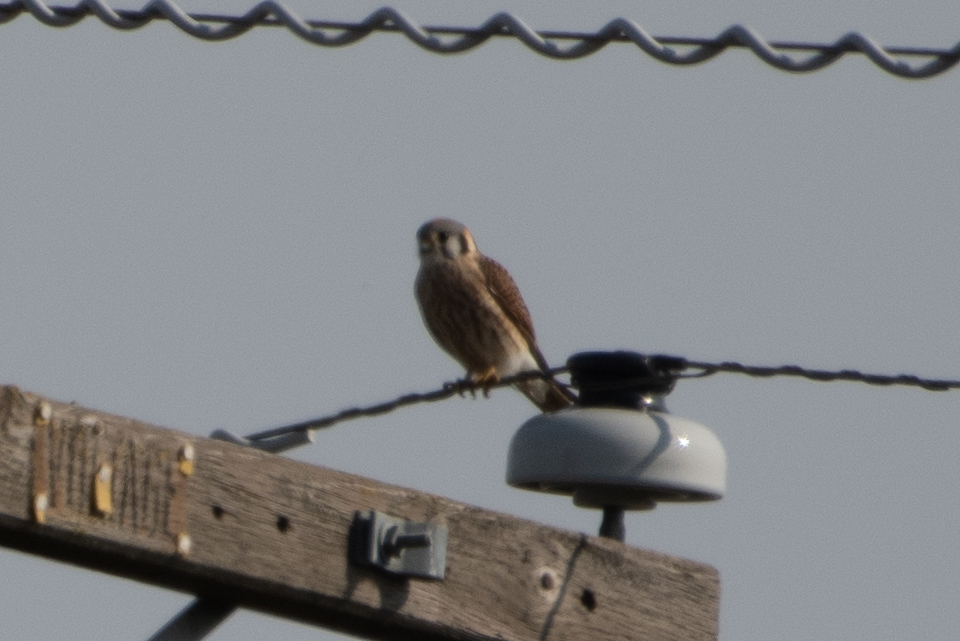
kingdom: Animalia
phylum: Chordata
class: Aves
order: Falconiformes
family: Falconidae
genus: Falco
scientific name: Falco sparverius
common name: American kestrel
